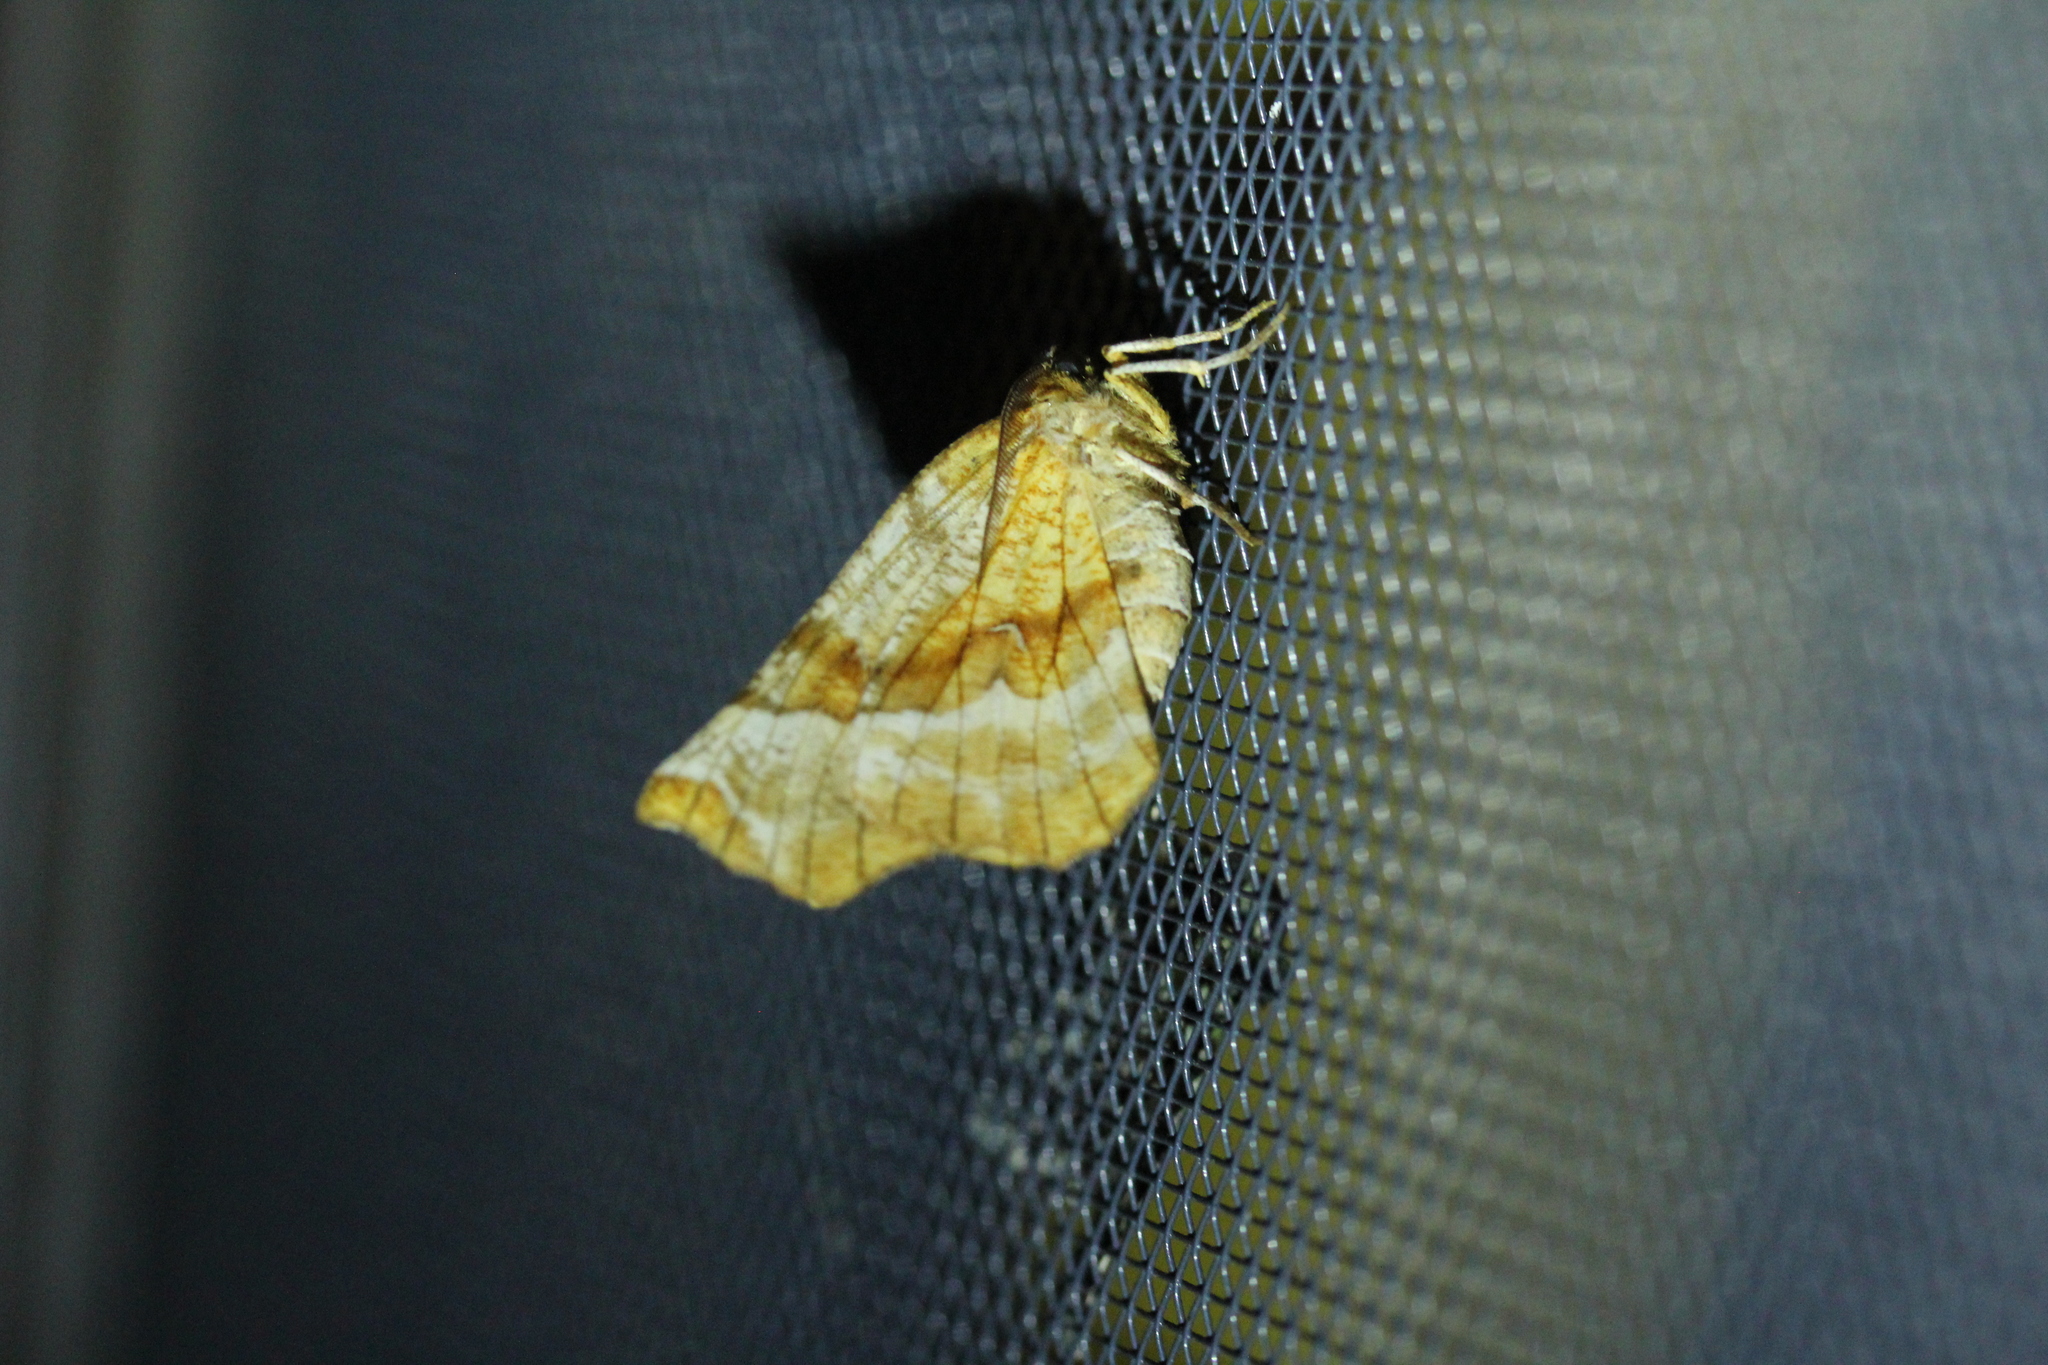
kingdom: Animalia
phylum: Arthropoda
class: Insecta
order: Lepidoptera
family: Geometridae
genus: Selenia
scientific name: Selenia kentaria
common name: Kent's geometer
